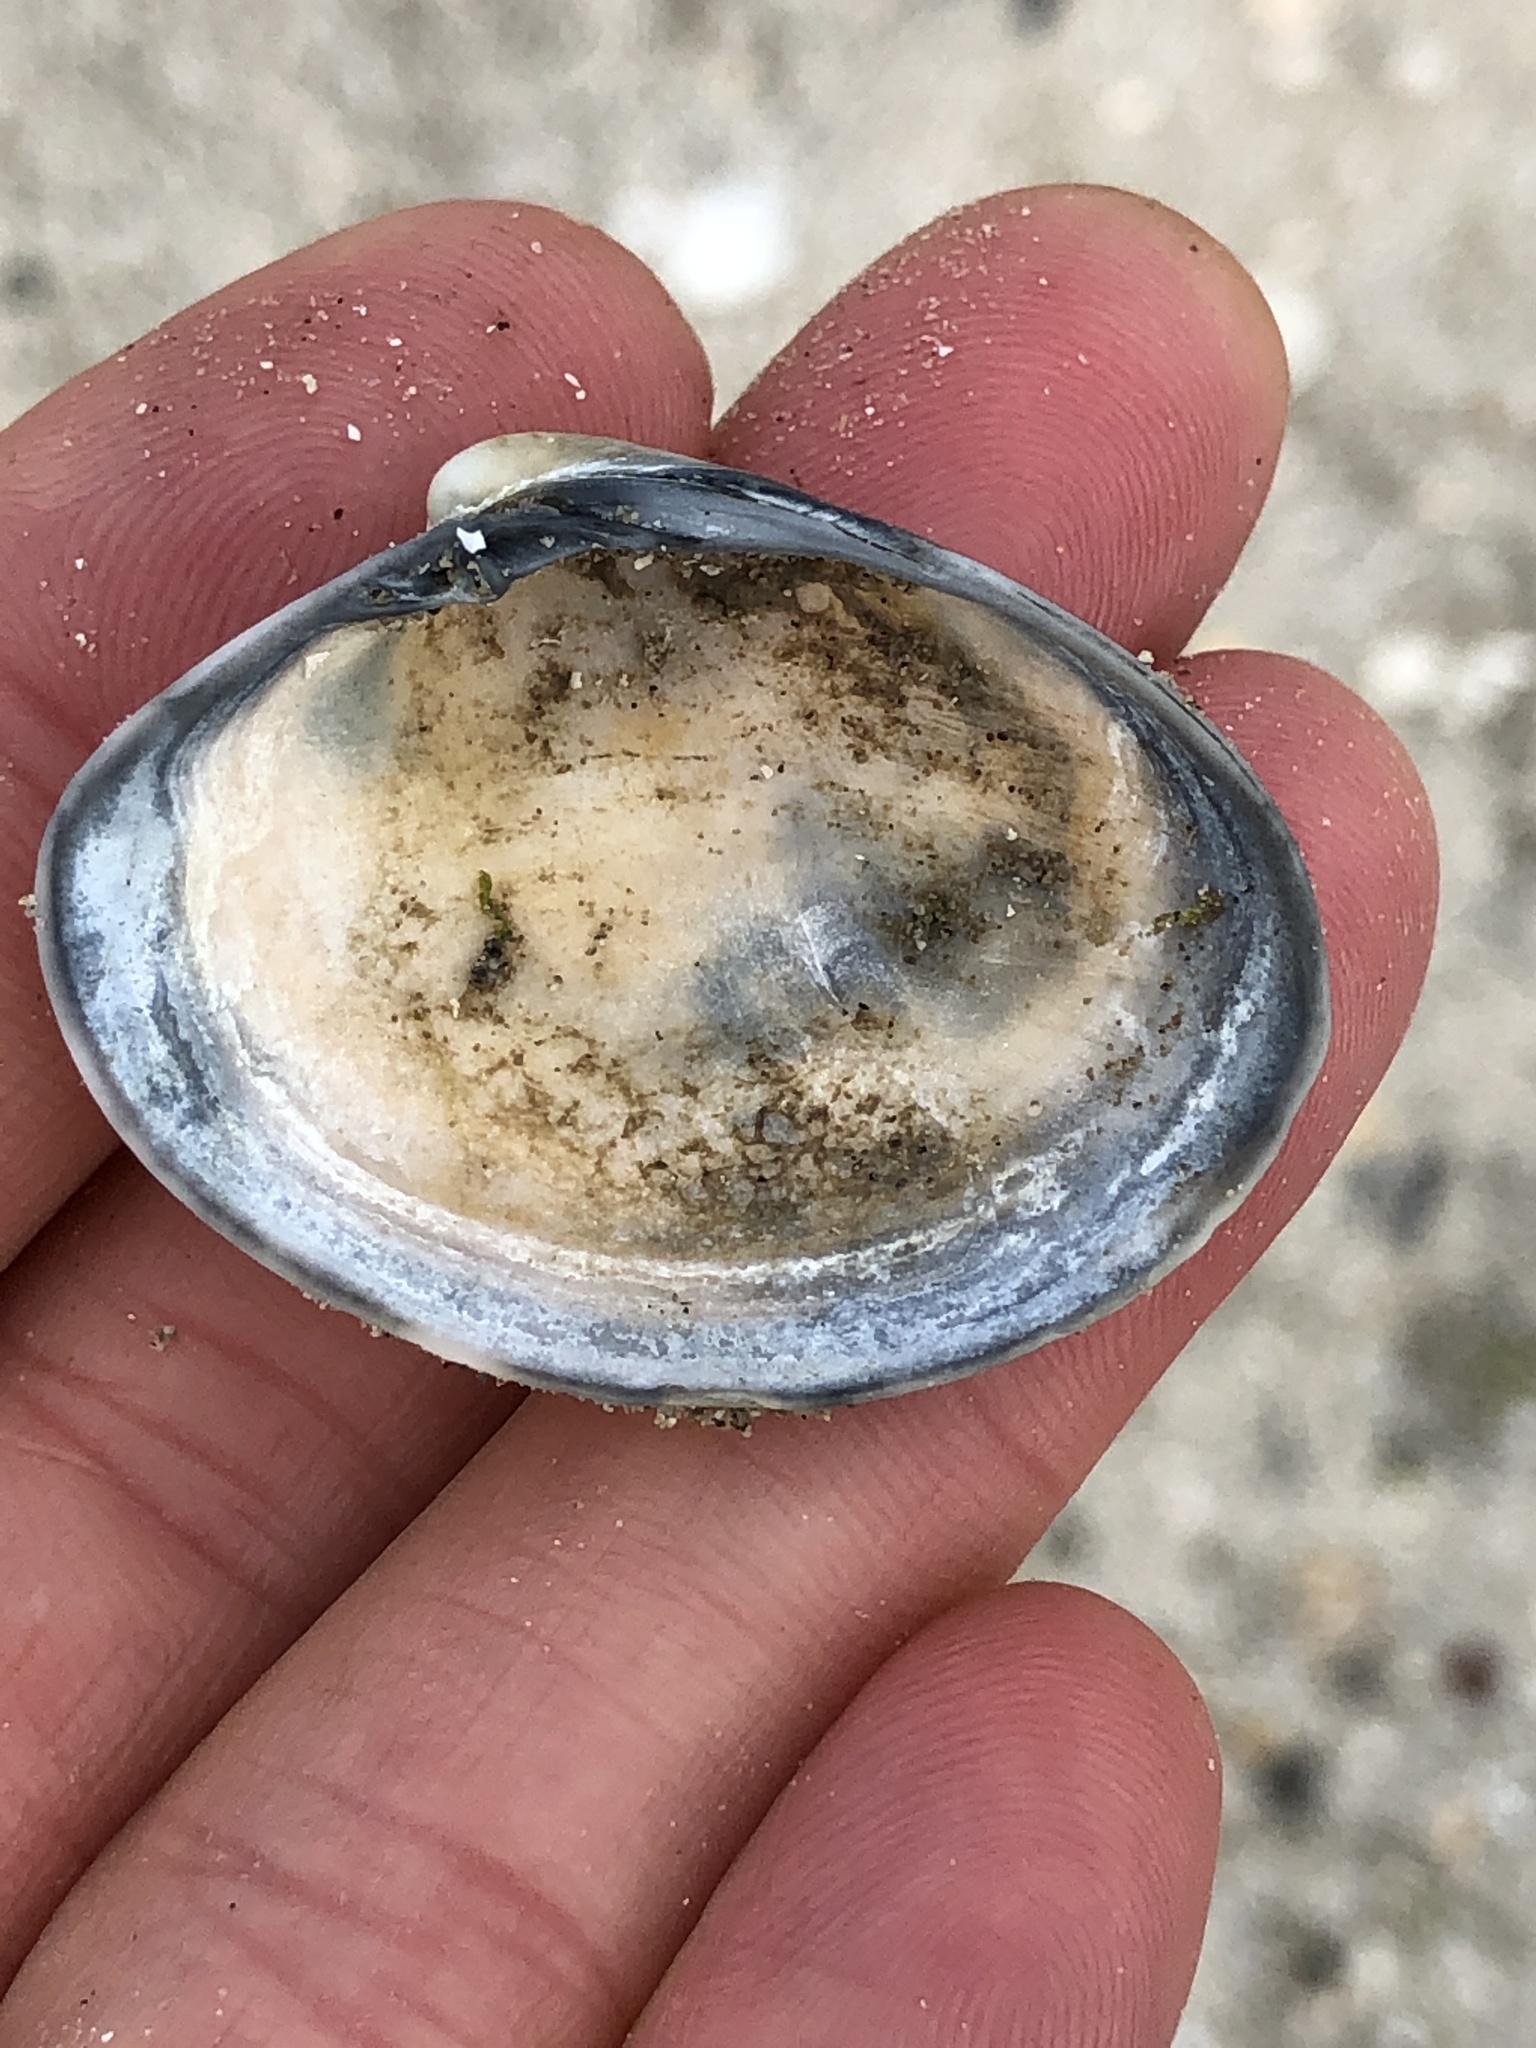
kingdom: Animalia
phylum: Mollusca
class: Bivalvia
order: Venerida
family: Veneridae
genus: Agriopoma
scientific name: Agriopoma texasianum
